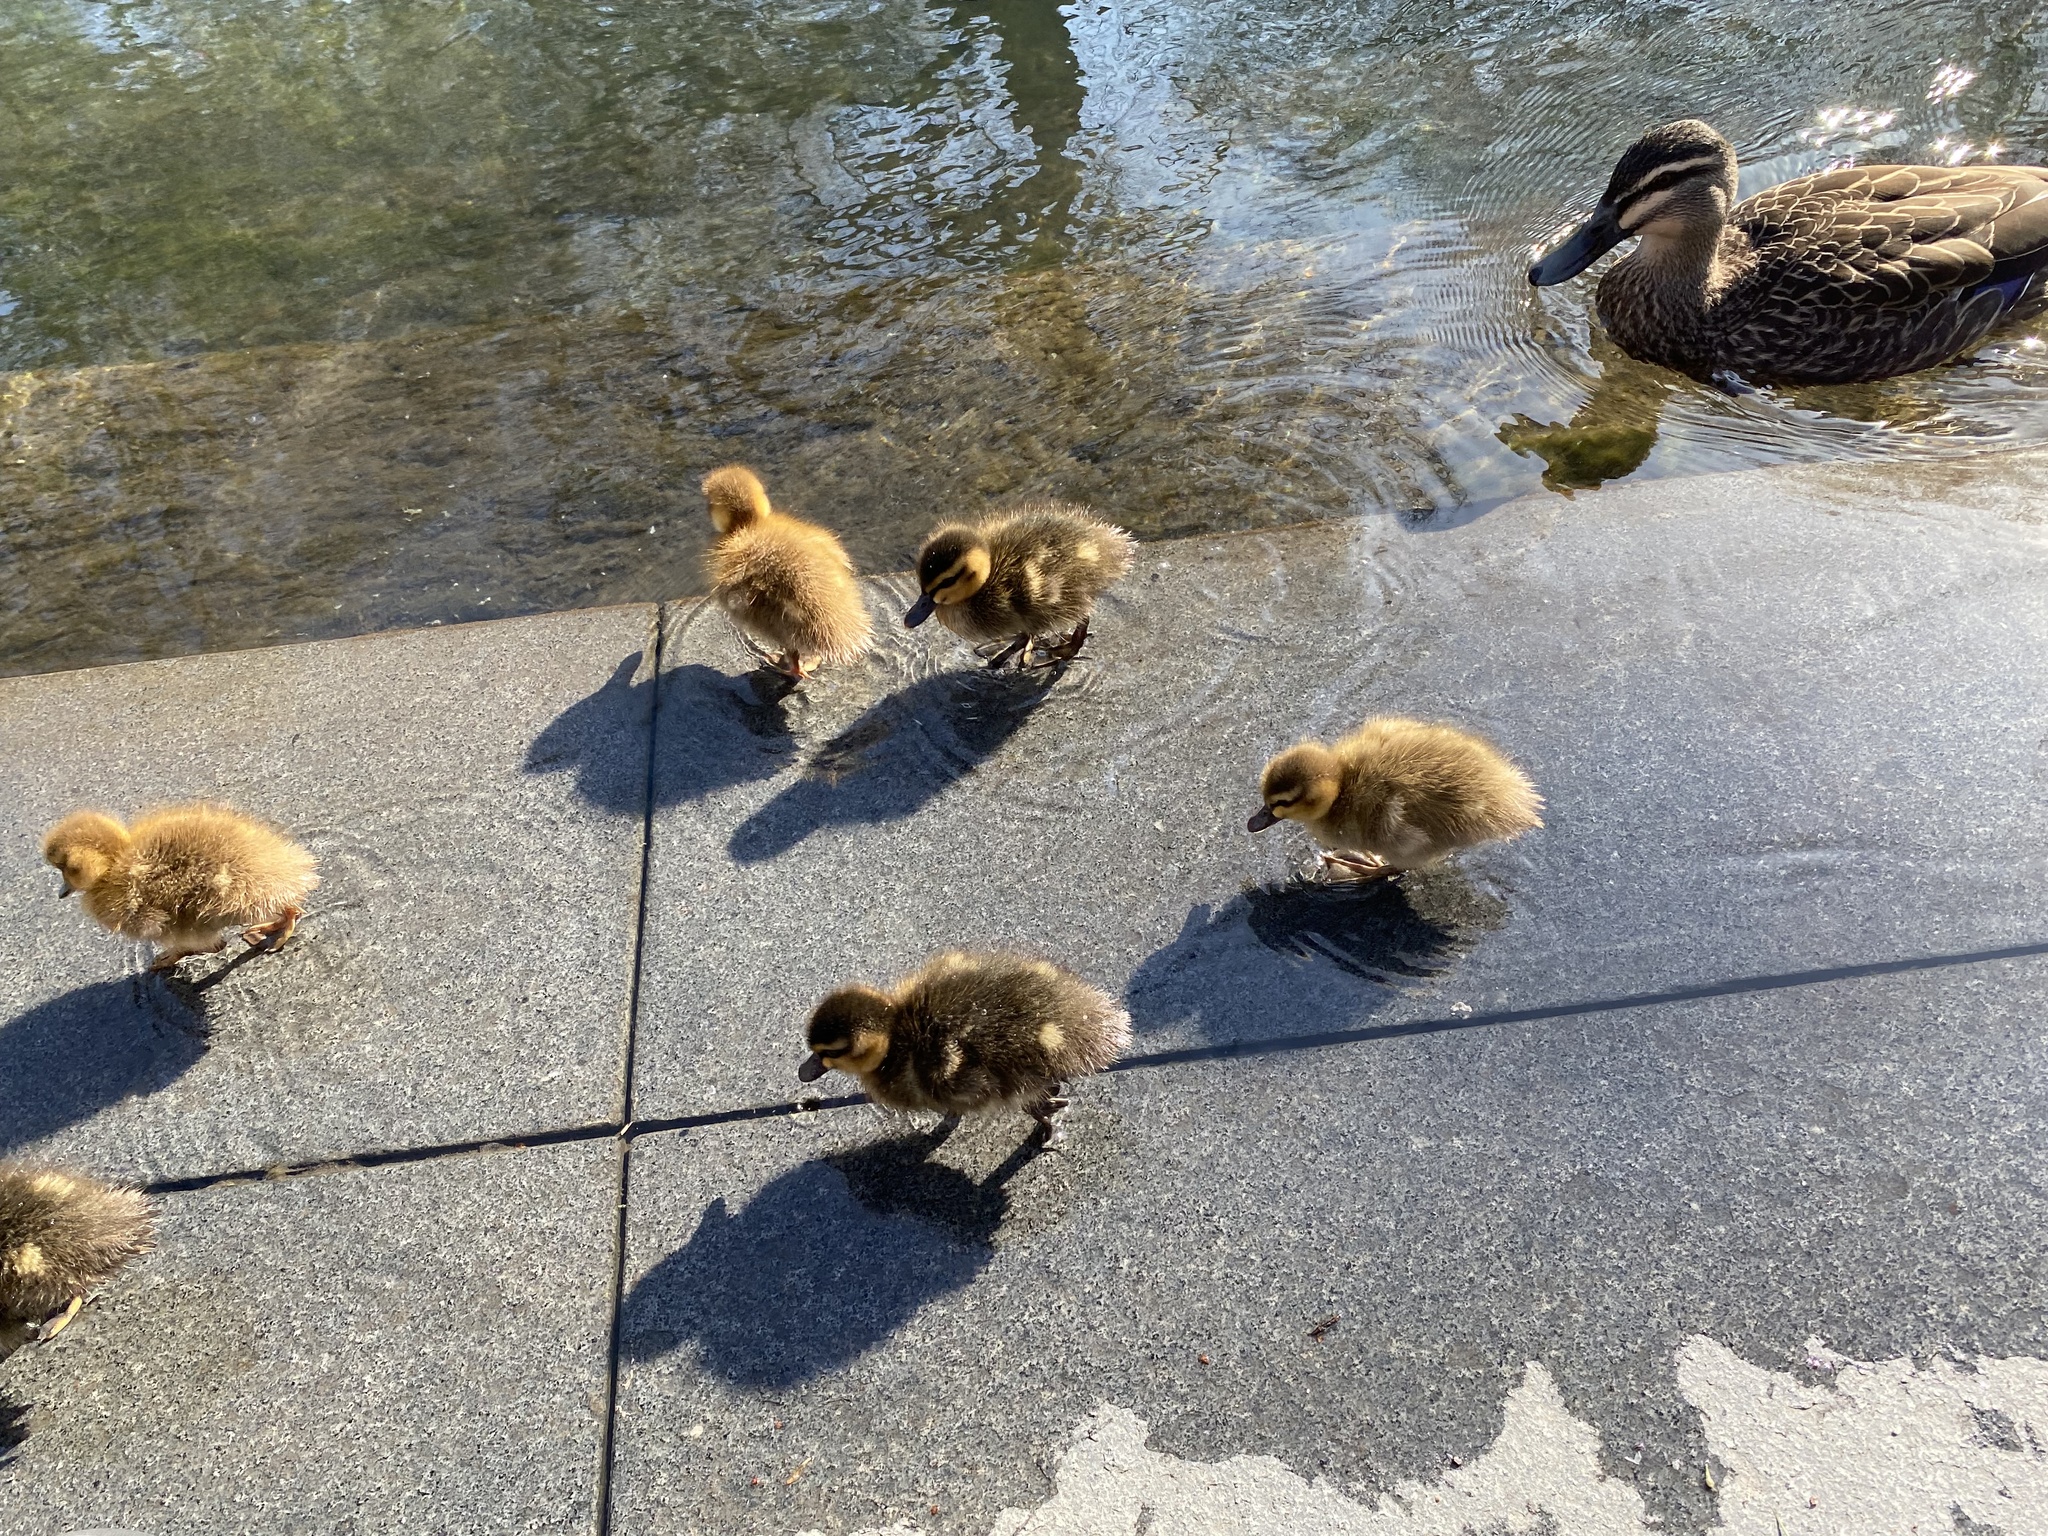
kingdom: Animalia
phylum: Chordata
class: Aves
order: Anseriformes
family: Anatidae
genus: Anas
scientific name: Anas
